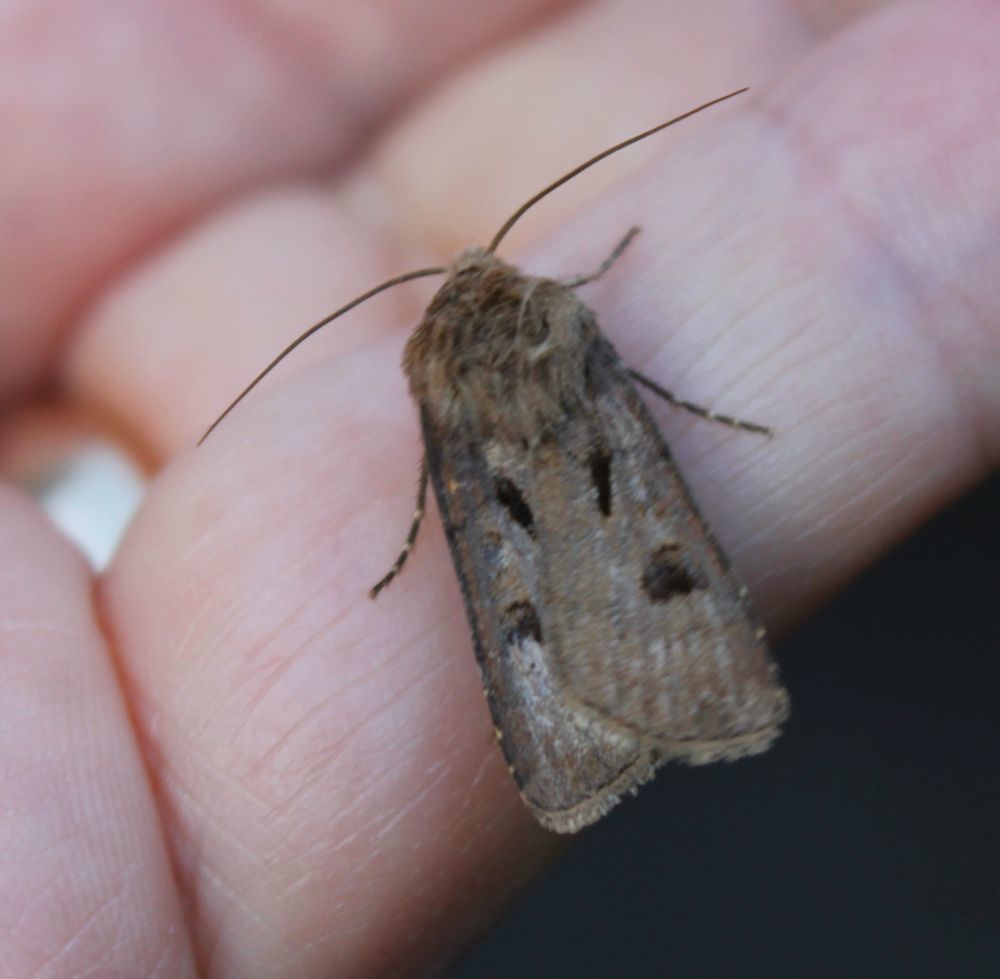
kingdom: Animalia
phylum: Arthropoda
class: Insecta
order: Lepidoptera
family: Noctuidae
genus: Agrotis
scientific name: Agrotis exclamationis
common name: Heart and dart
